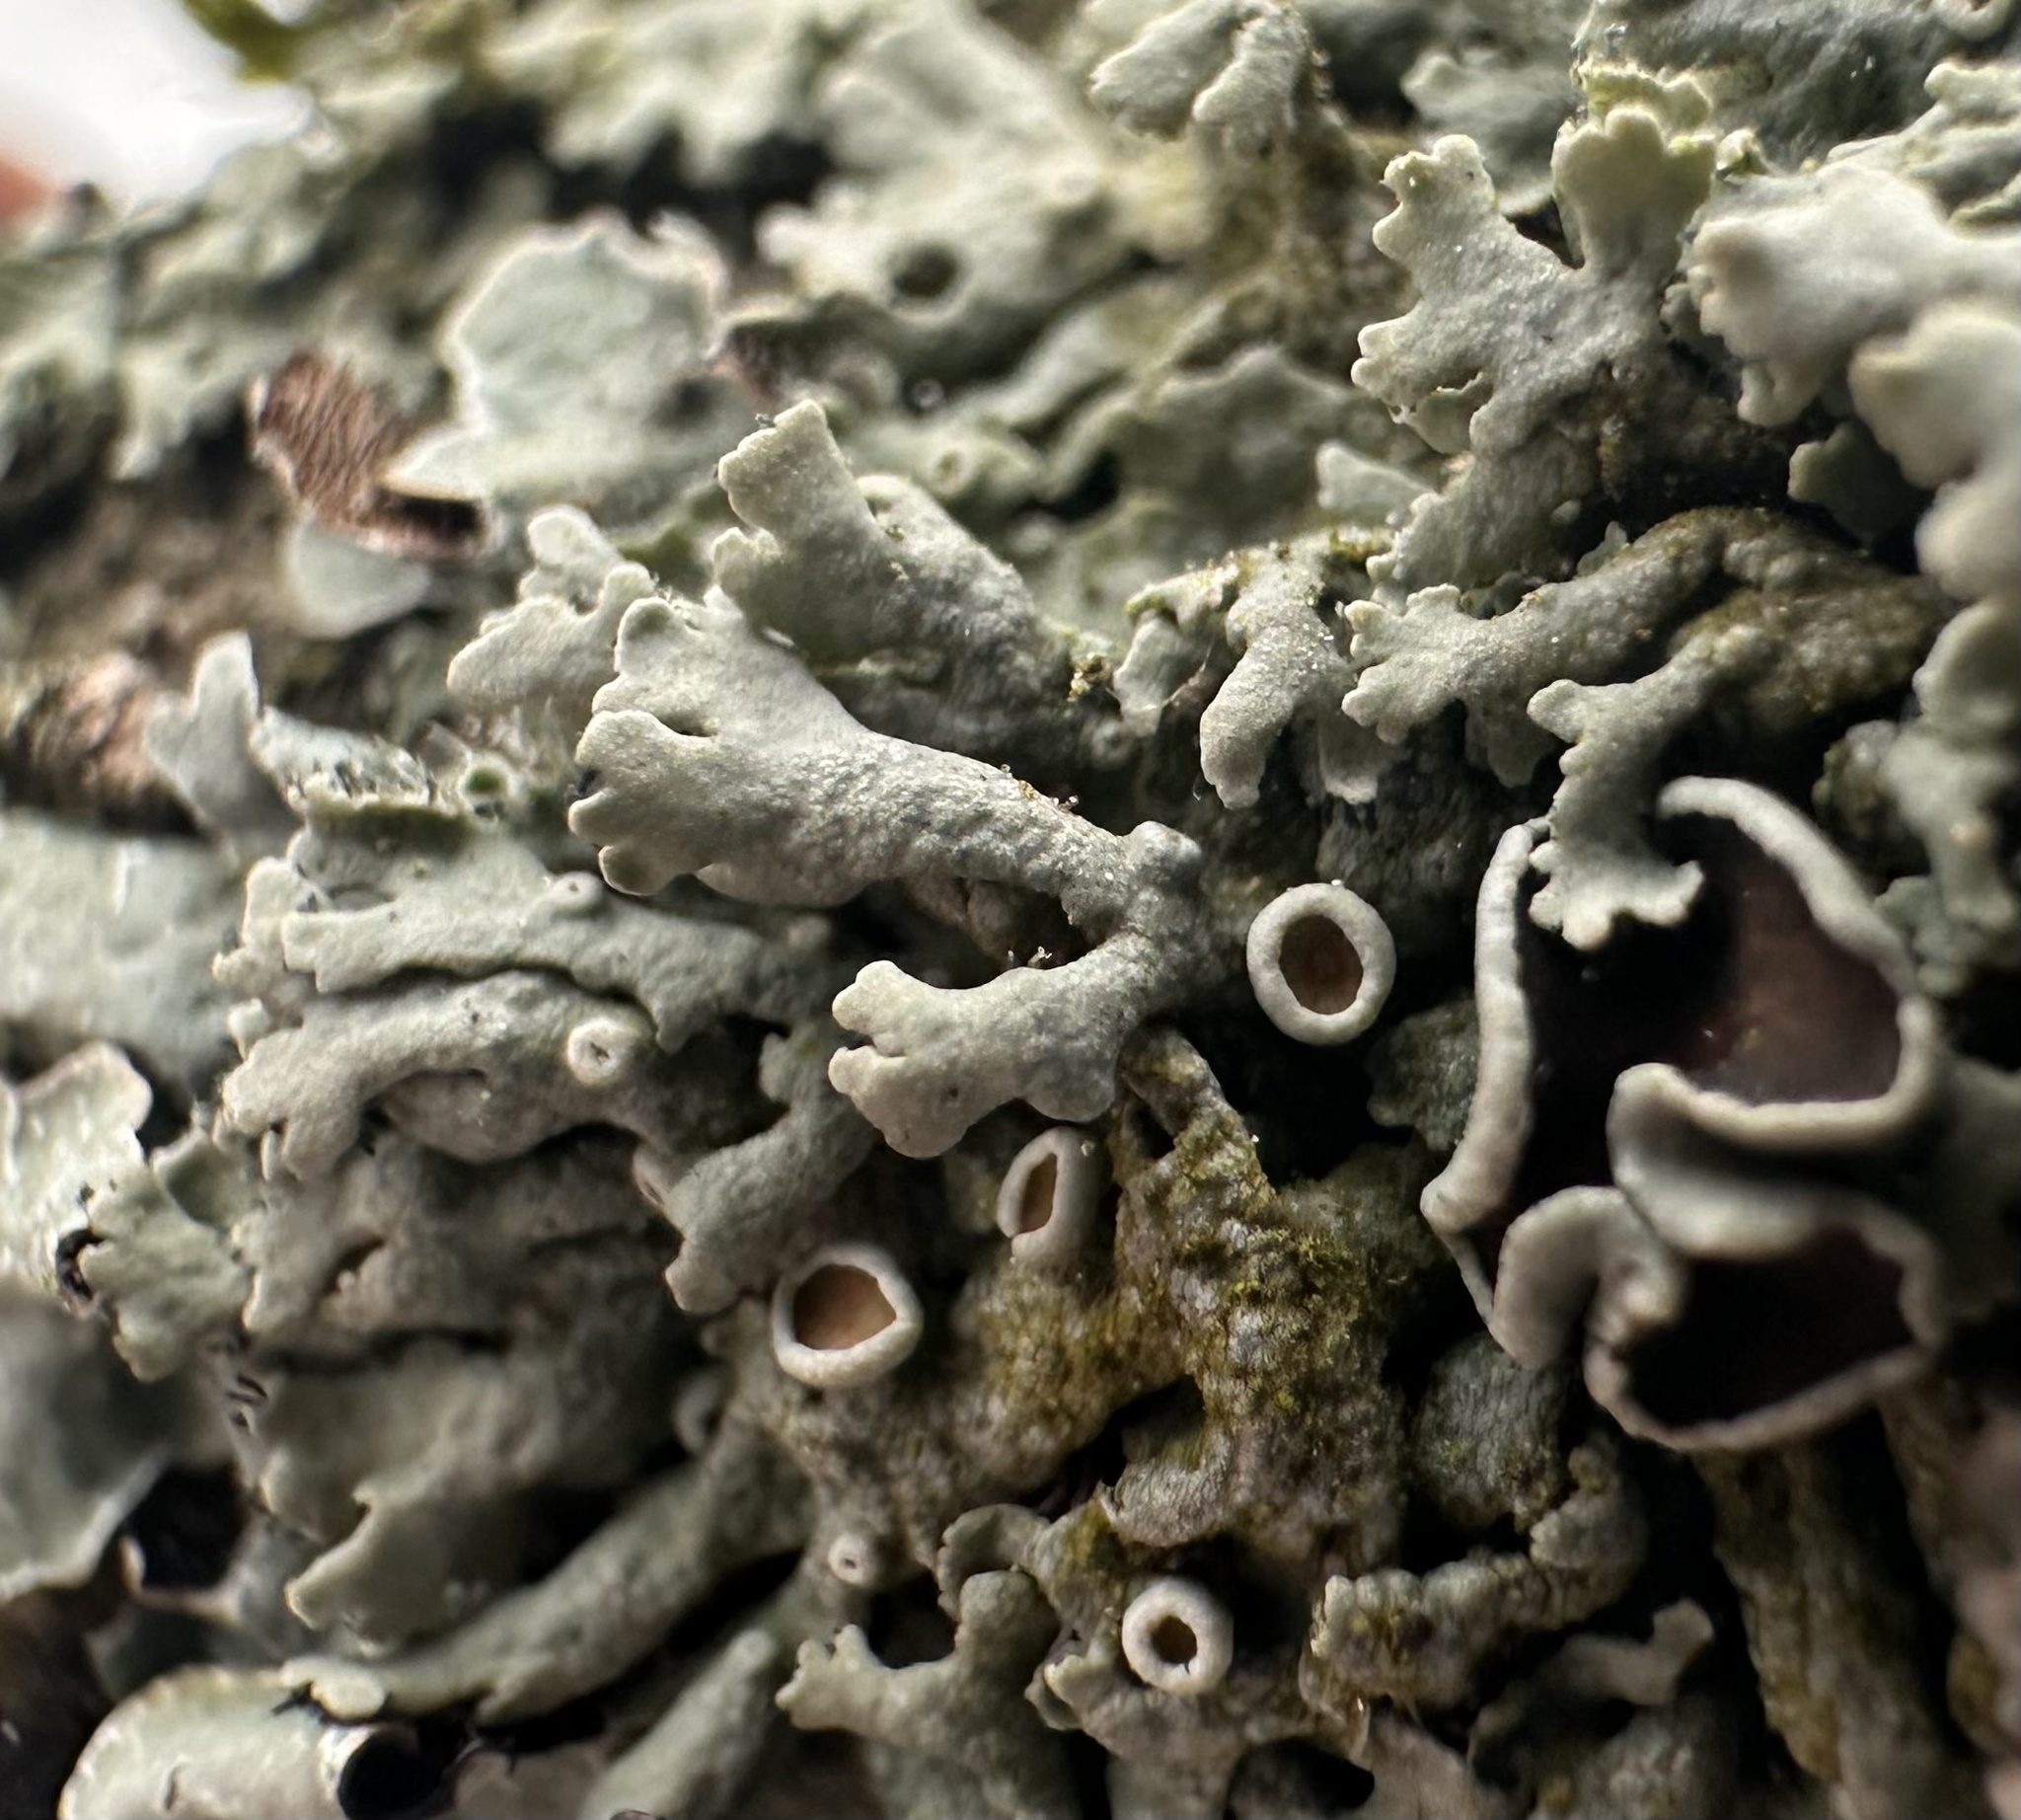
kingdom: Fungi
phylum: Ascomycota
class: Lecanoromycetes
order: Caliciales
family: Physciaceae
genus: Physcia
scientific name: Physcia aipolia
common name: Hoary rosette lichen
